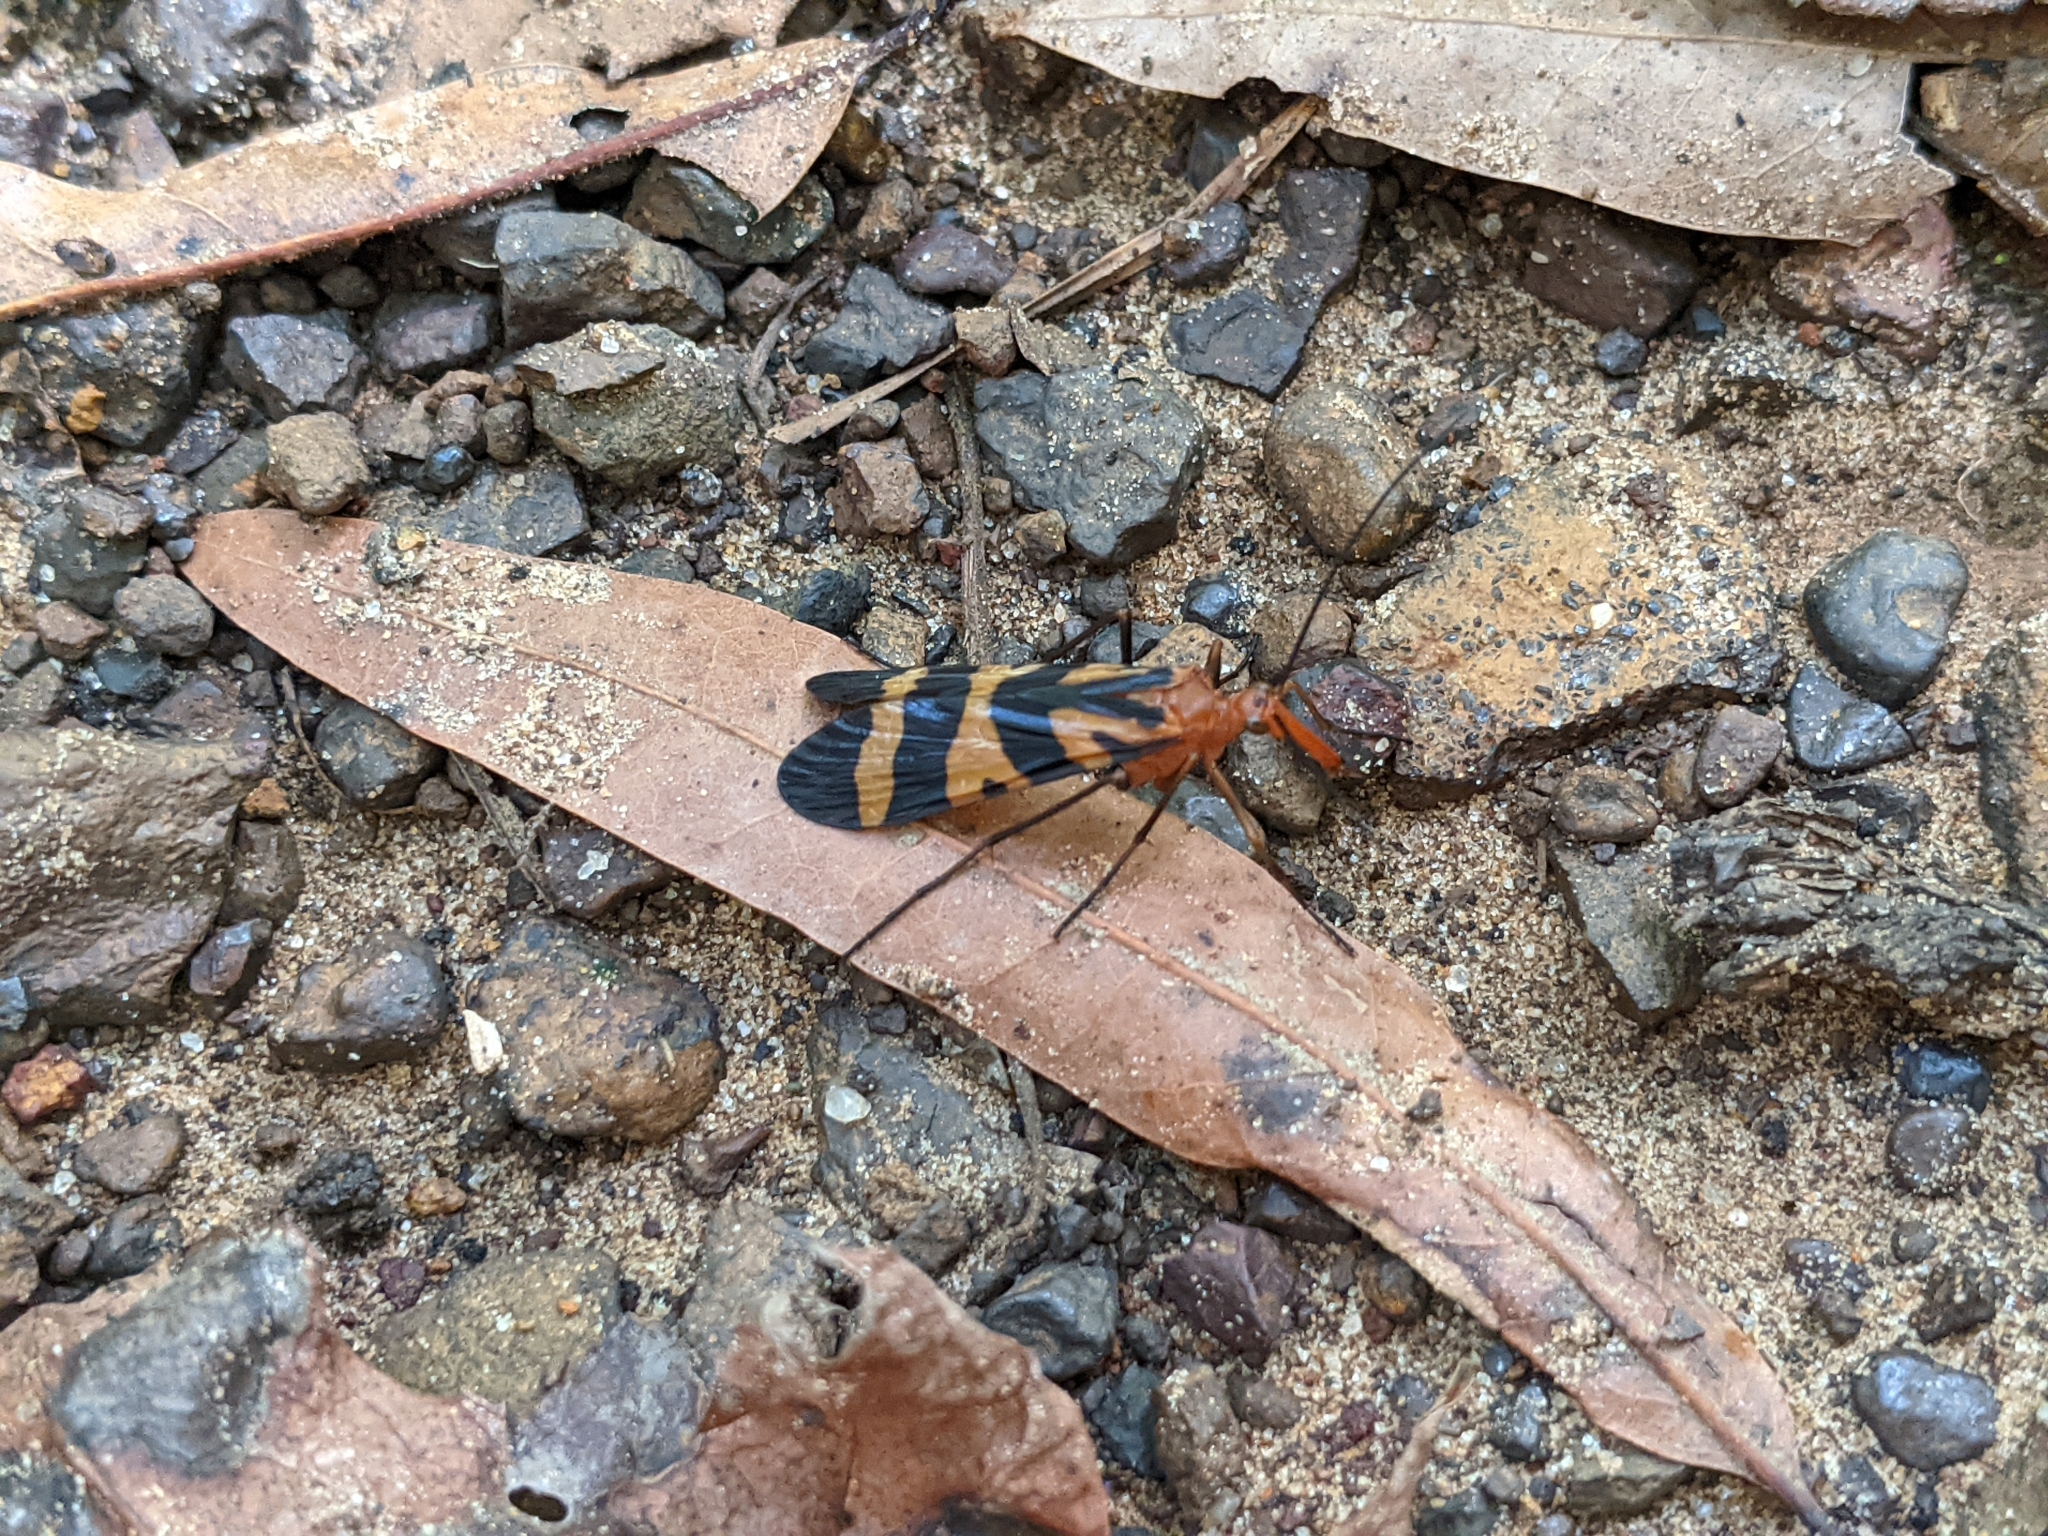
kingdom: Animalia
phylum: Arthropoda
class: Insecta
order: Mecoptera
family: Panorpidae
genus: Panorpa
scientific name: Panorpa nuptialis
